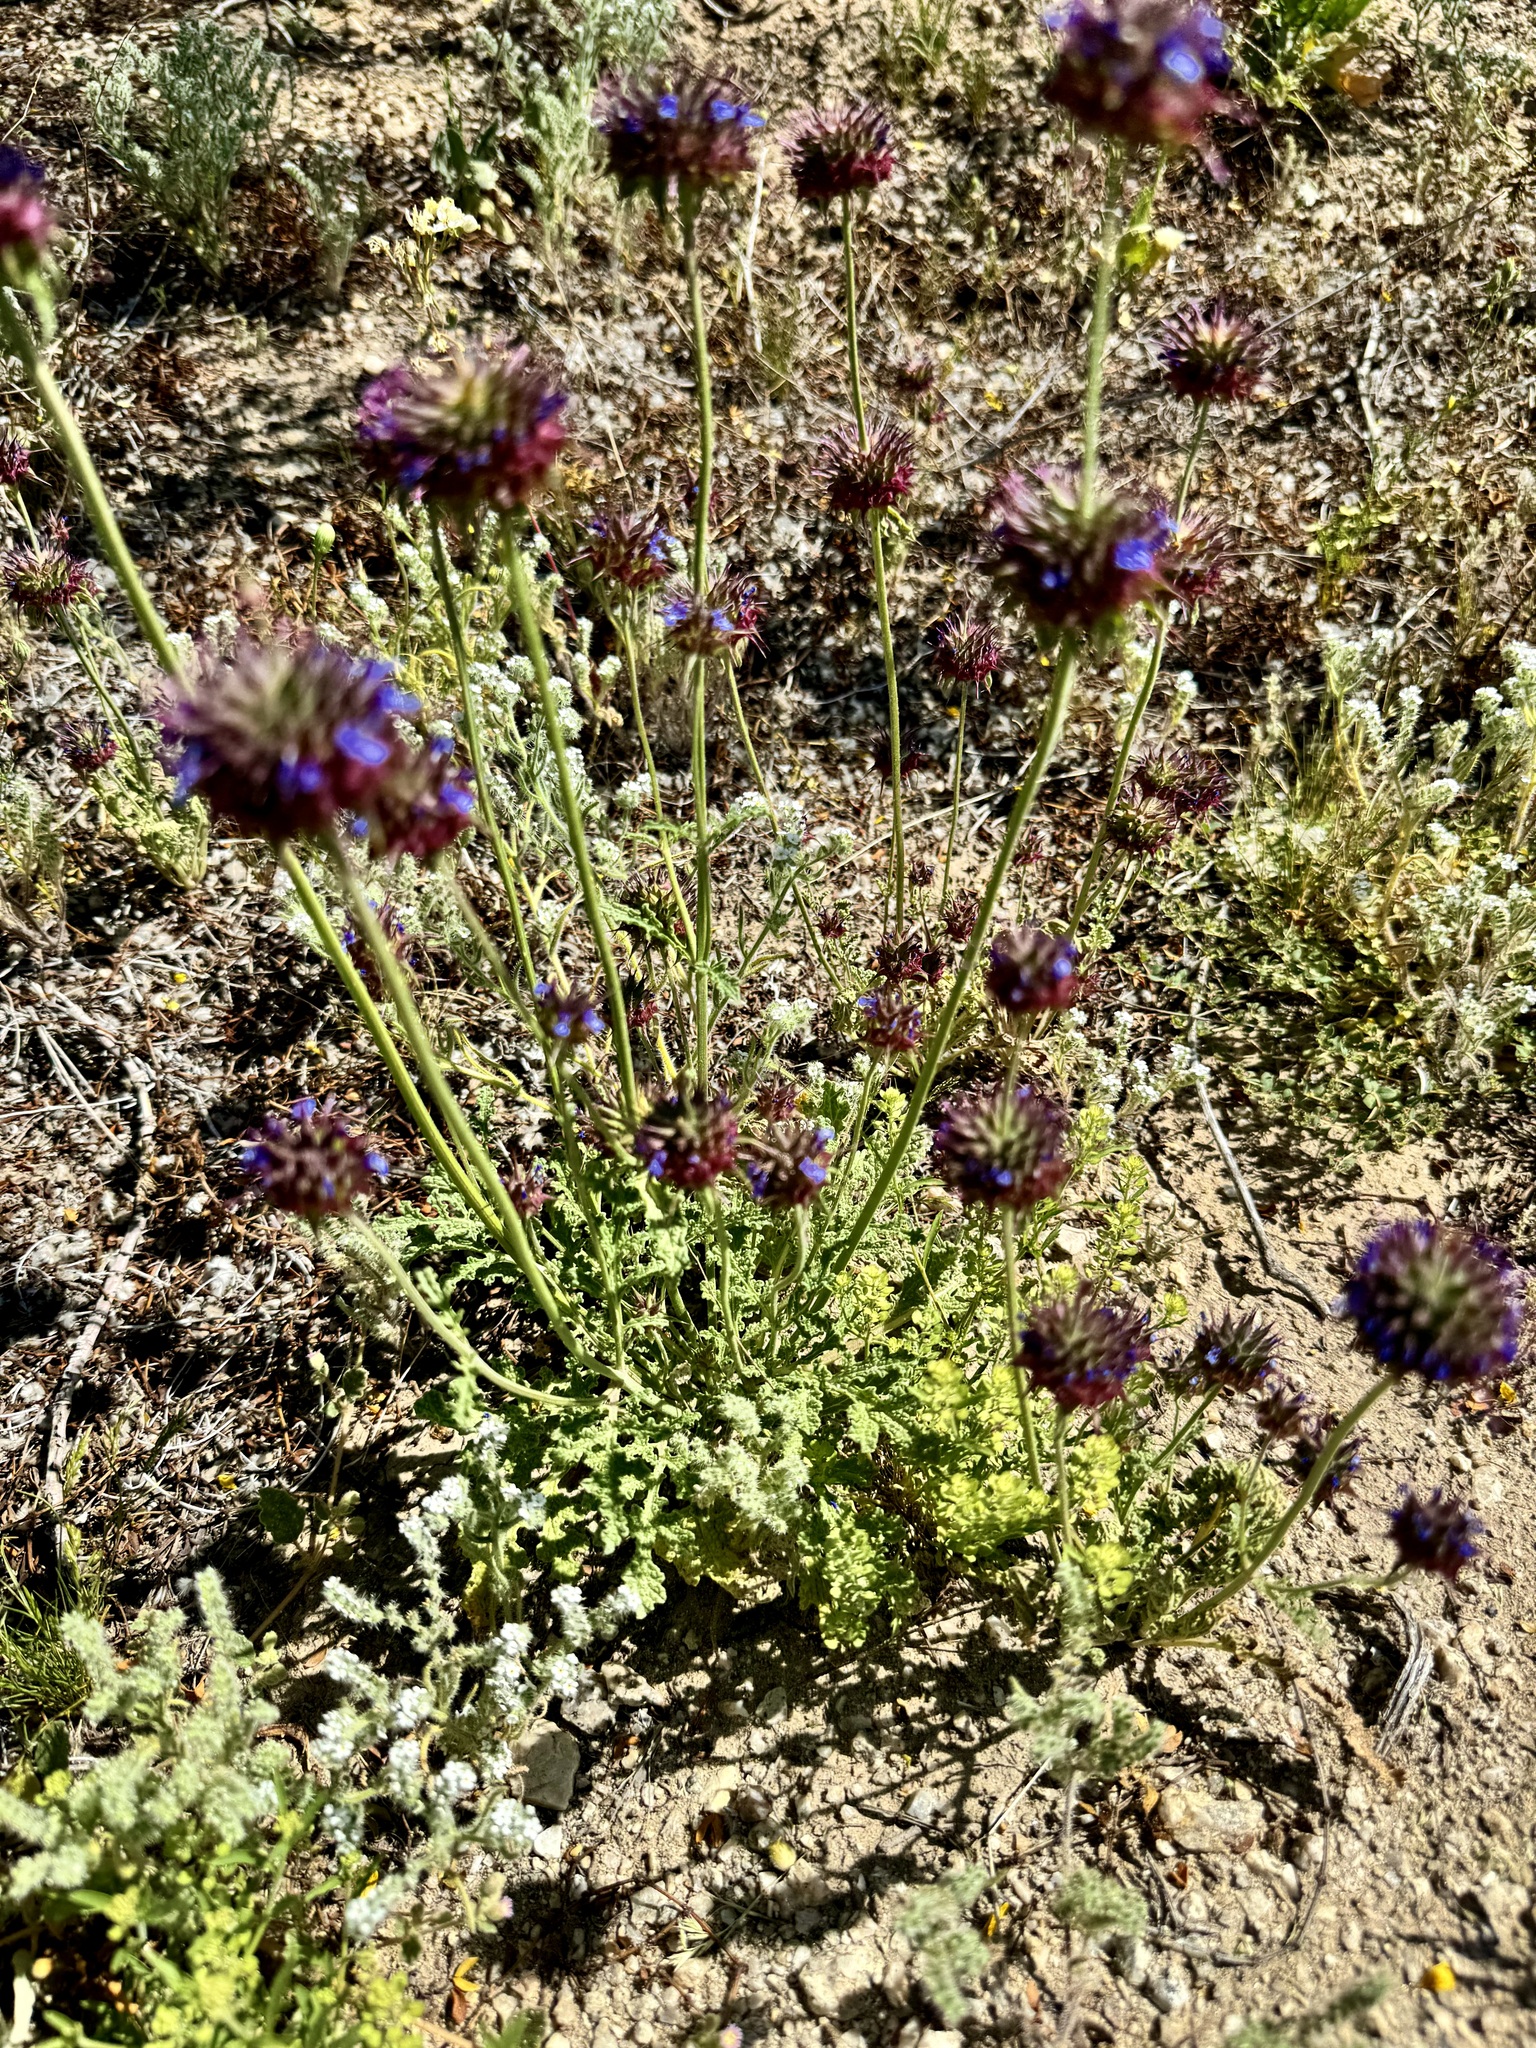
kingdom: Plantae
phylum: Tracheophyta
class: Magnoliopsida
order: Lamiales
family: Lamiaceae
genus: Salvia
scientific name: Salvia columbariae
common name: Chia
